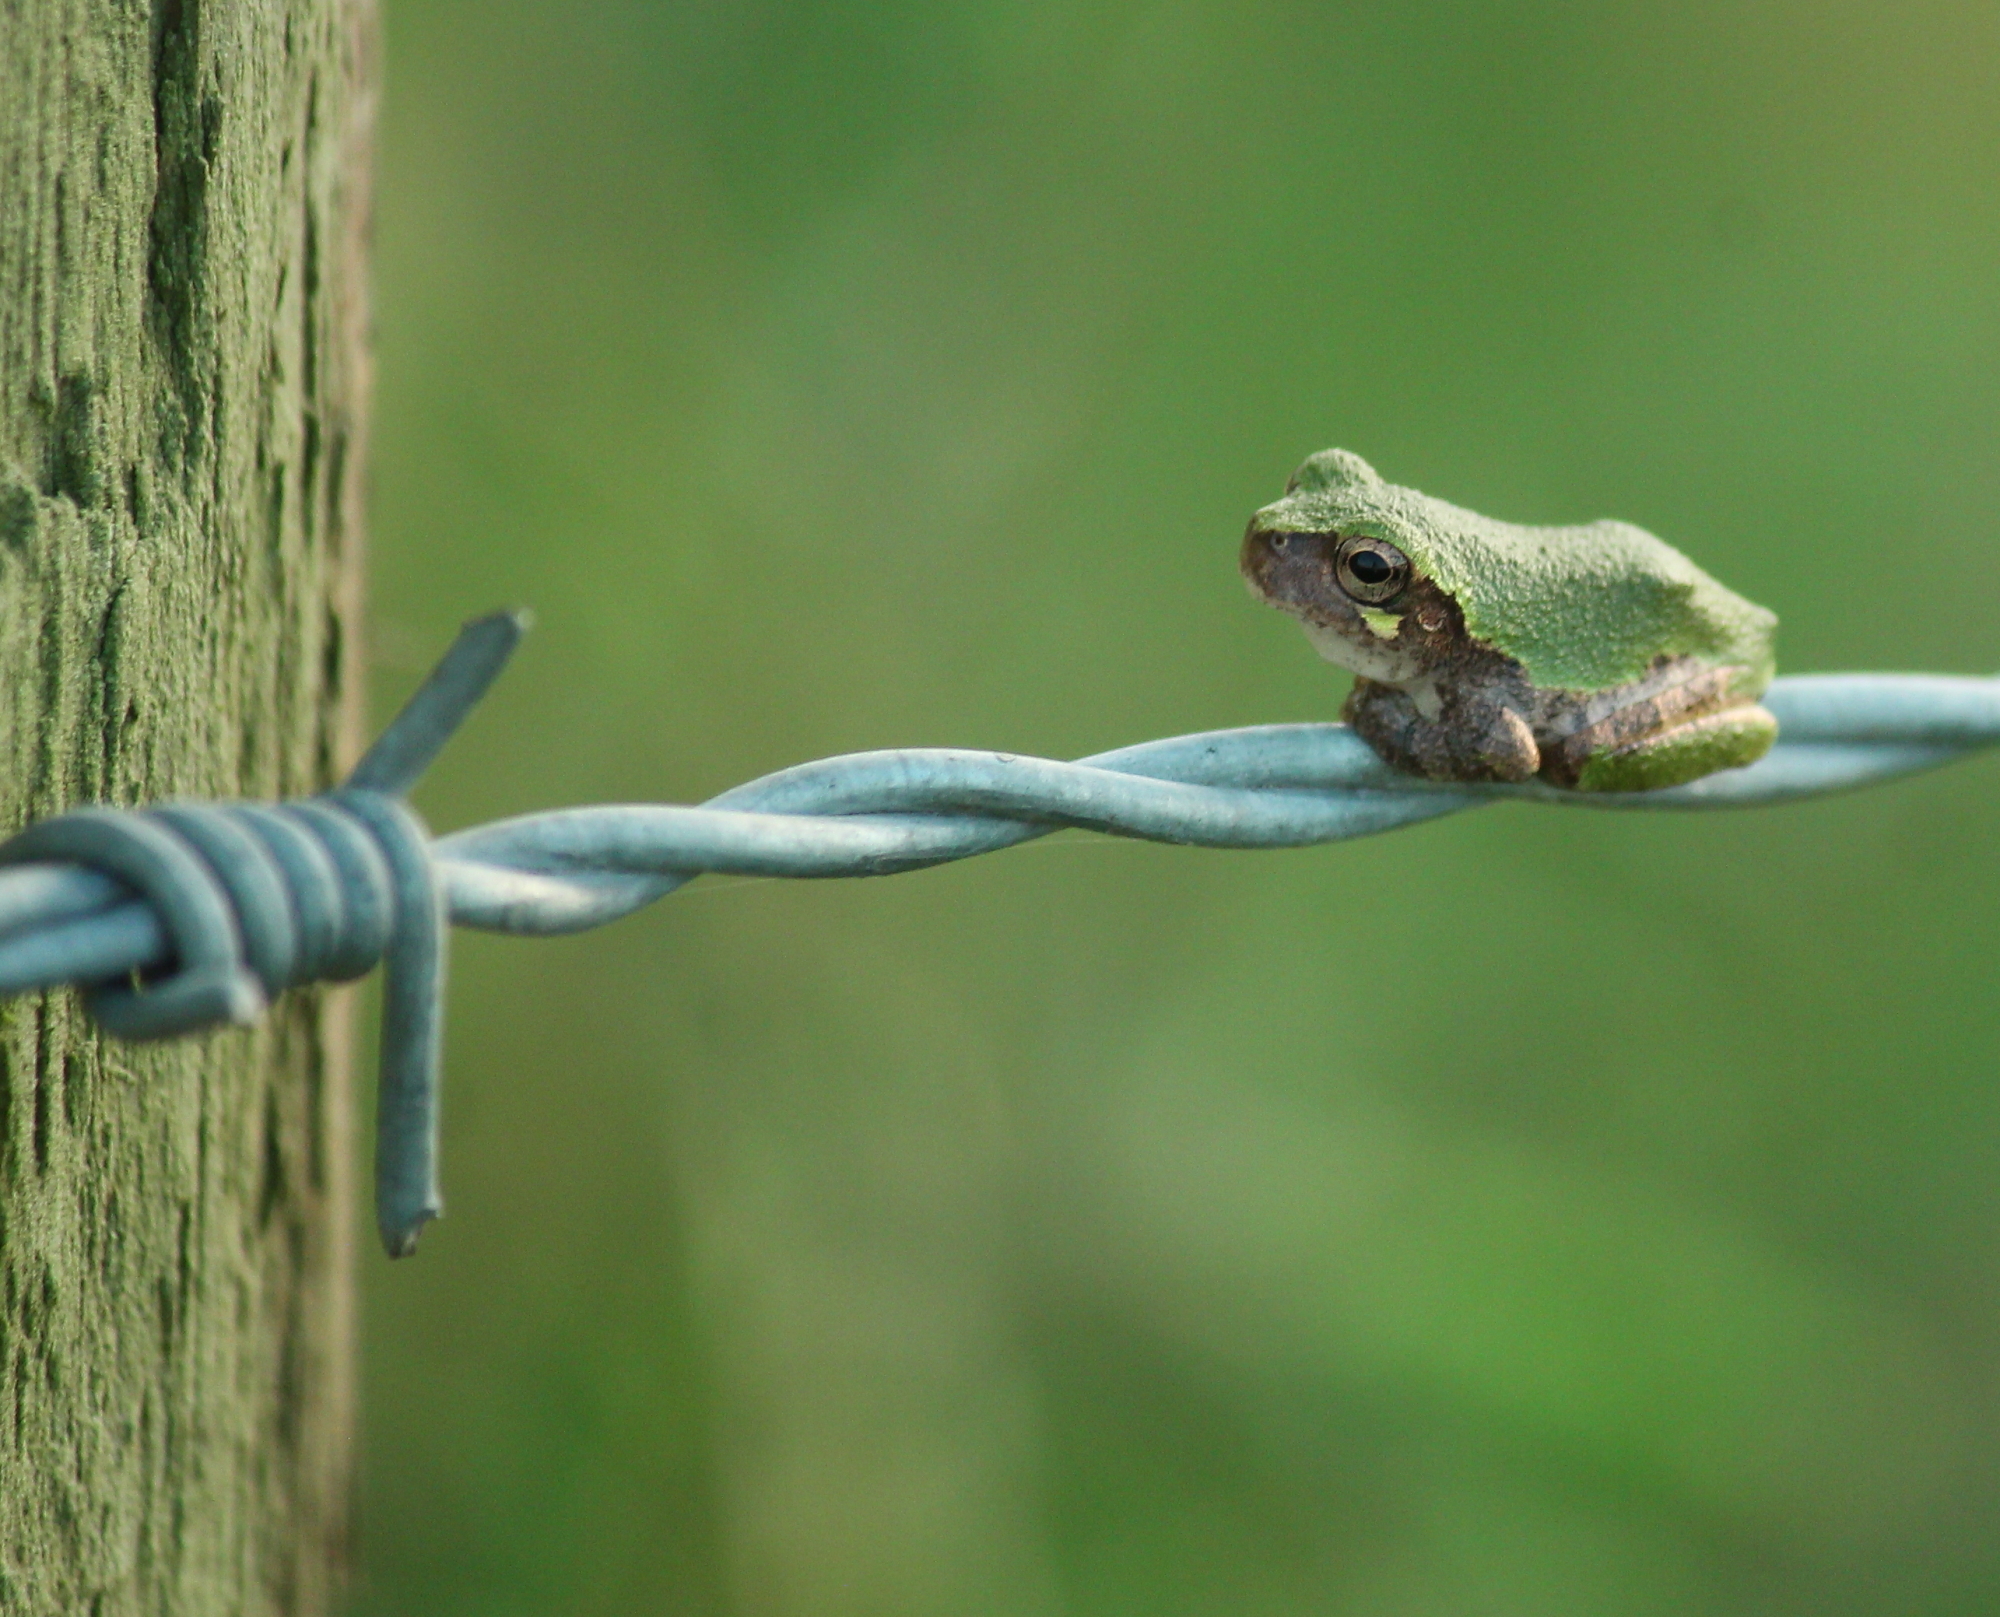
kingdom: Animalia
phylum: Chordata
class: Amphibia
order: Anura
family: Hylidae
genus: Dryophytes
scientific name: Dryophytes versicolor
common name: Gray treefrog
